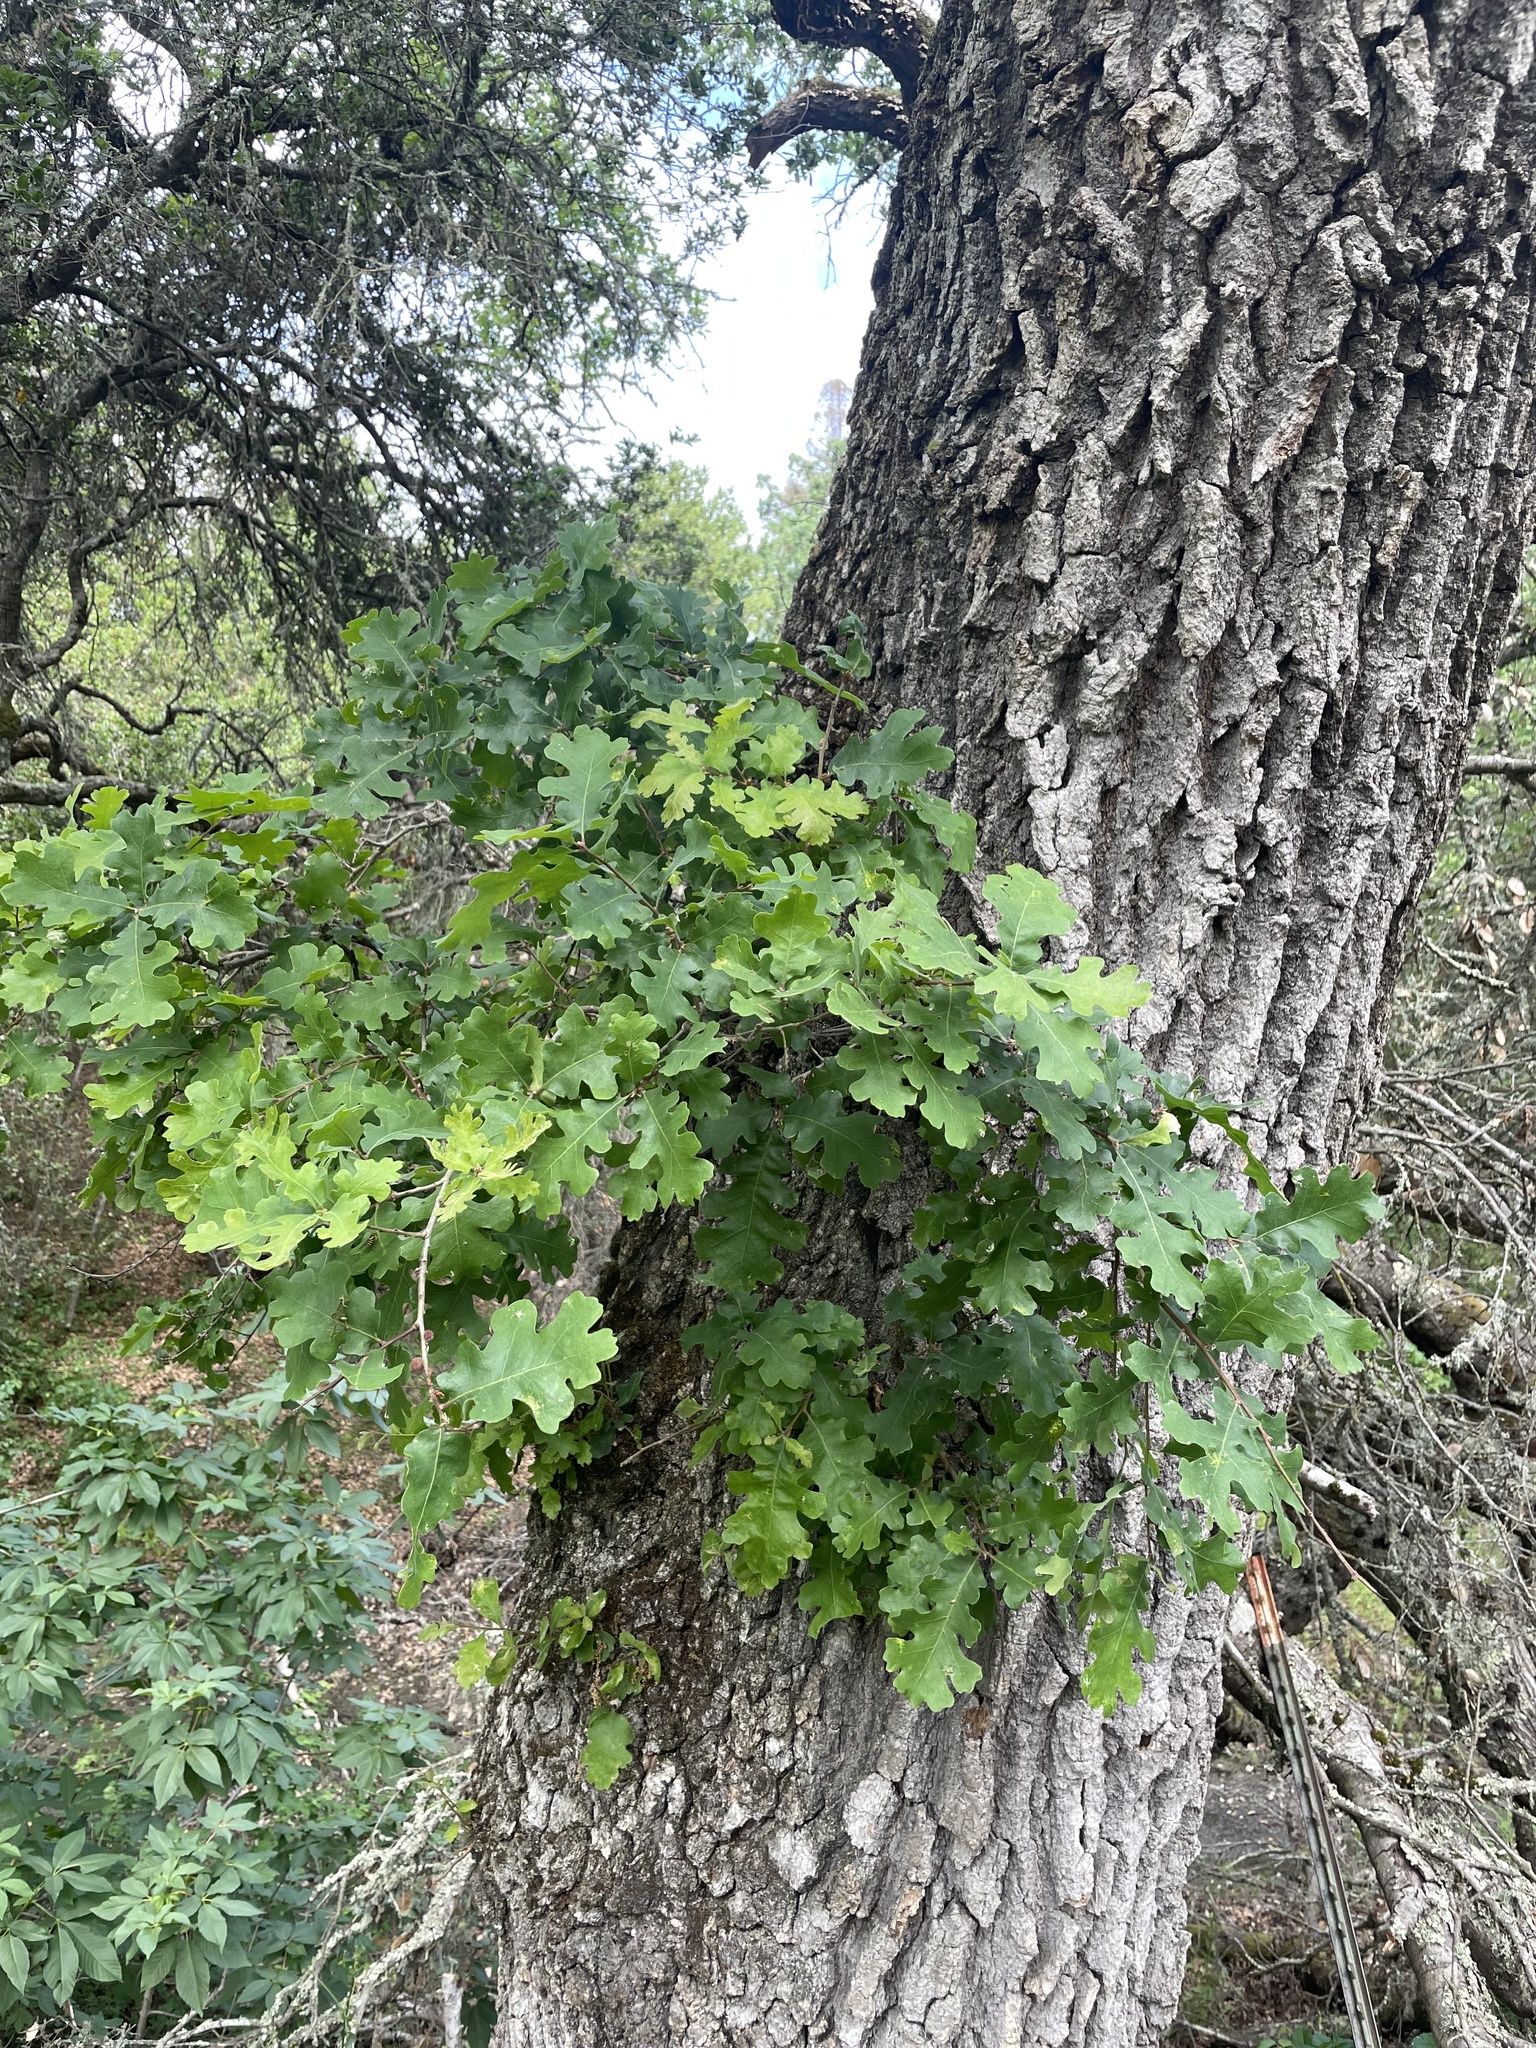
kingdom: Plantae
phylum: Tracheophyta
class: Magnoliopsida
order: Fagales
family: Fagaceae
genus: Quercus
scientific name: Quercus lobata
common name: Valley oak
